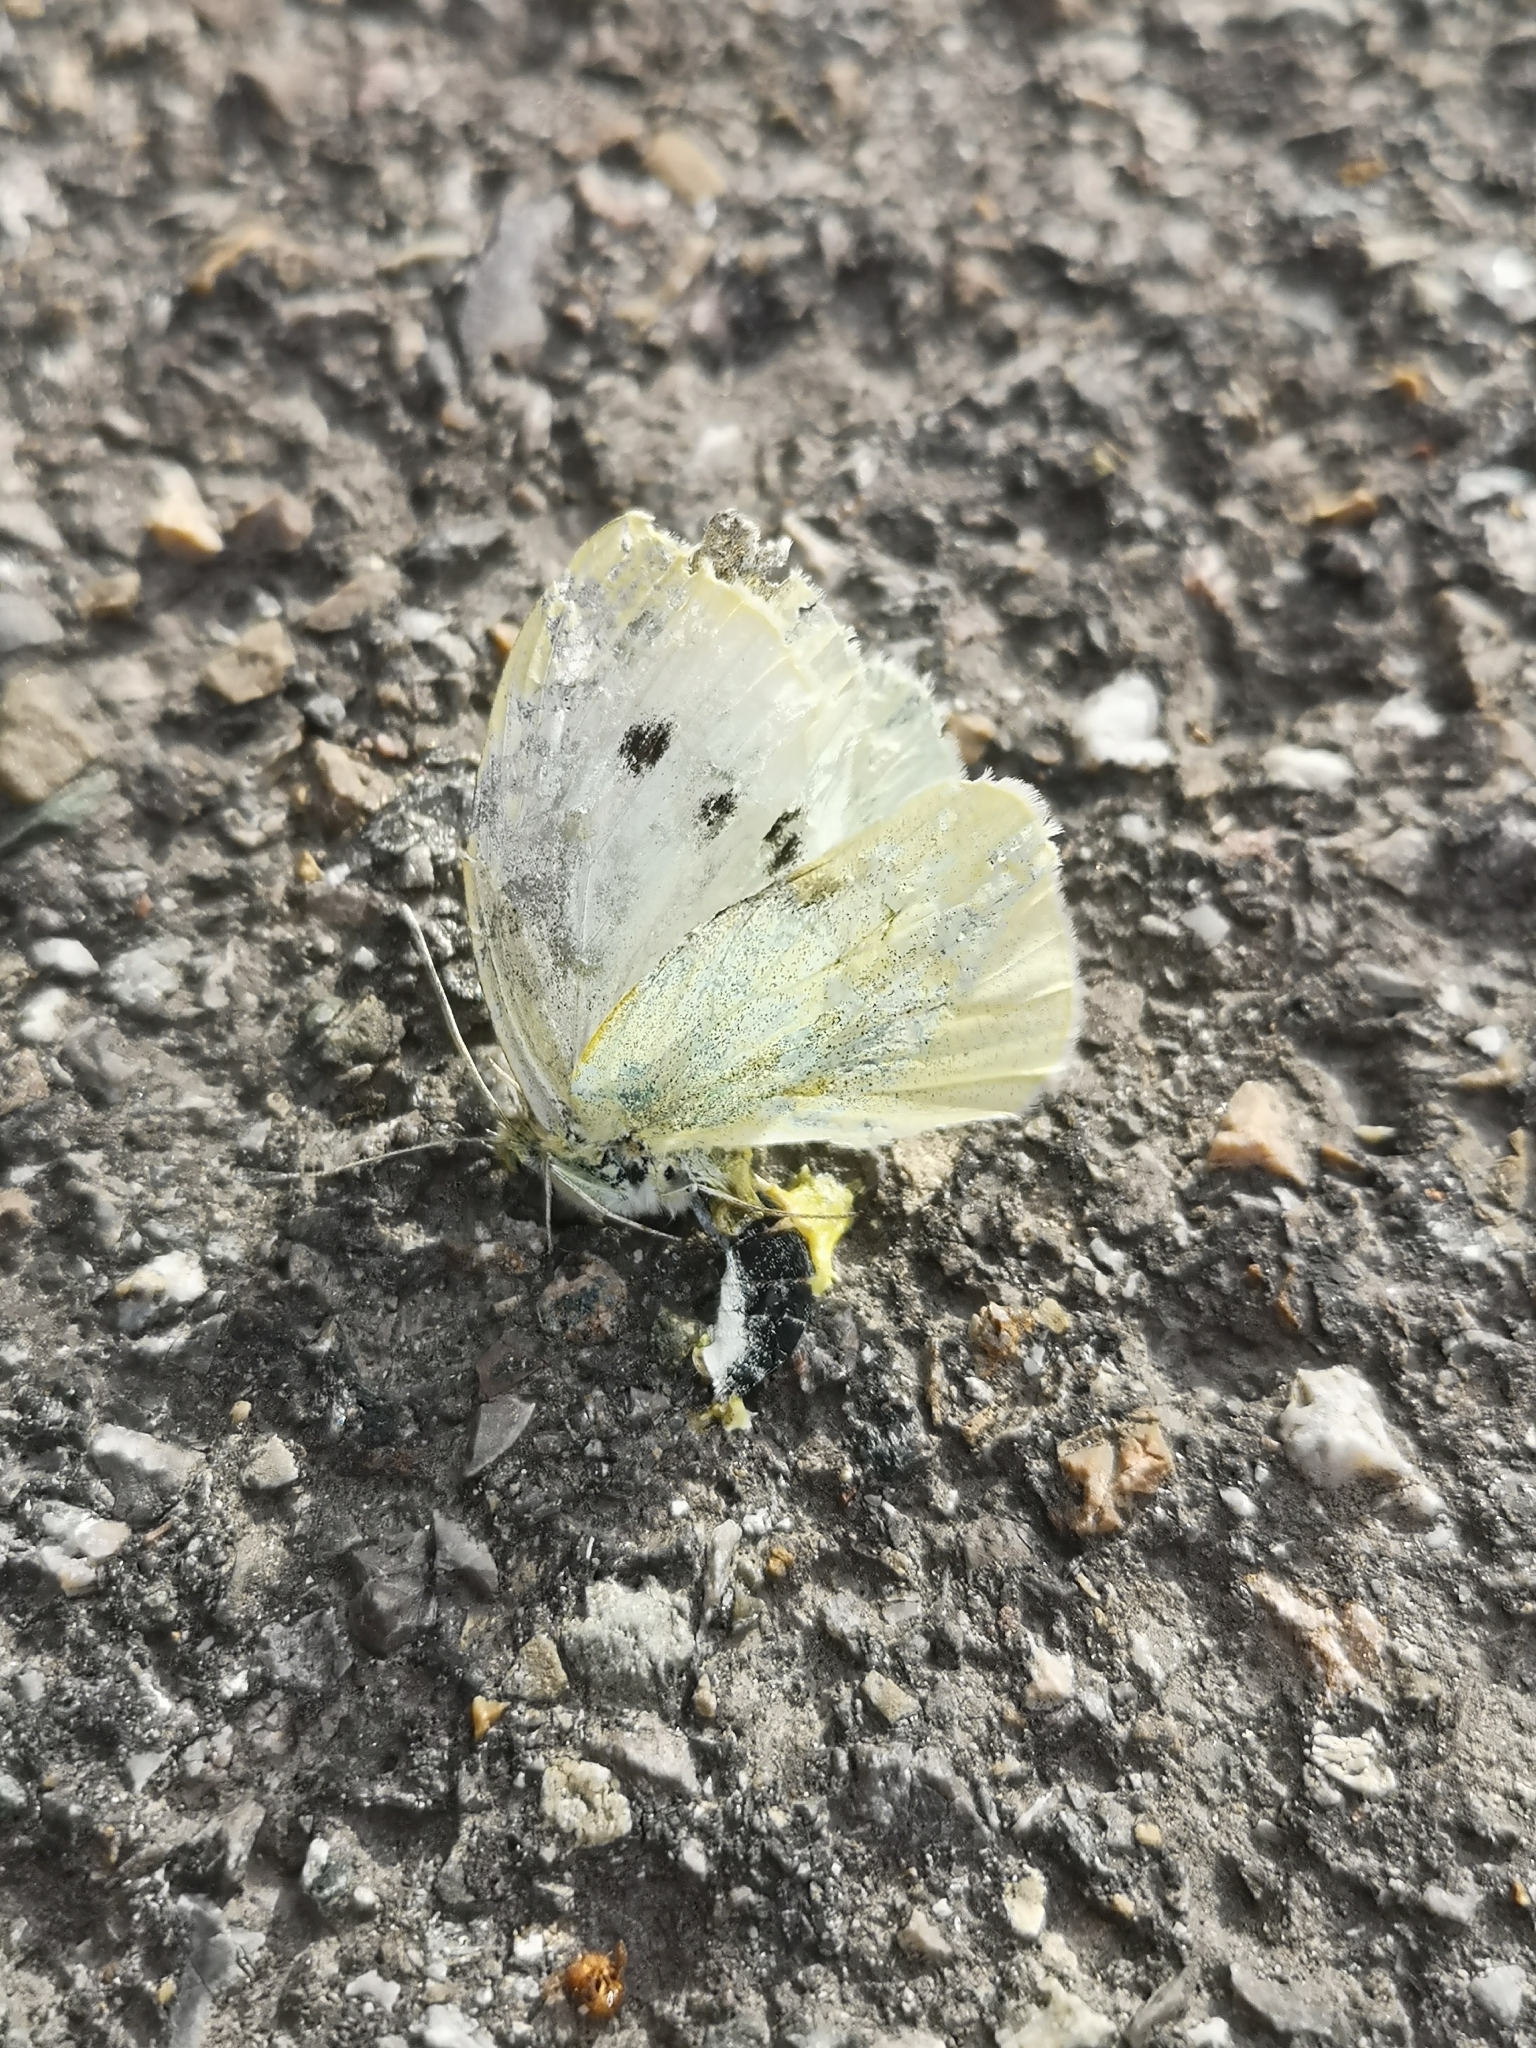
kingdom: Animalia
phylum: Arthropoda
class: Insecta
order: Lepidoptera
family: Pieridae
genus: Pieris
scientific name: Pieris rapae
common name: Small white
